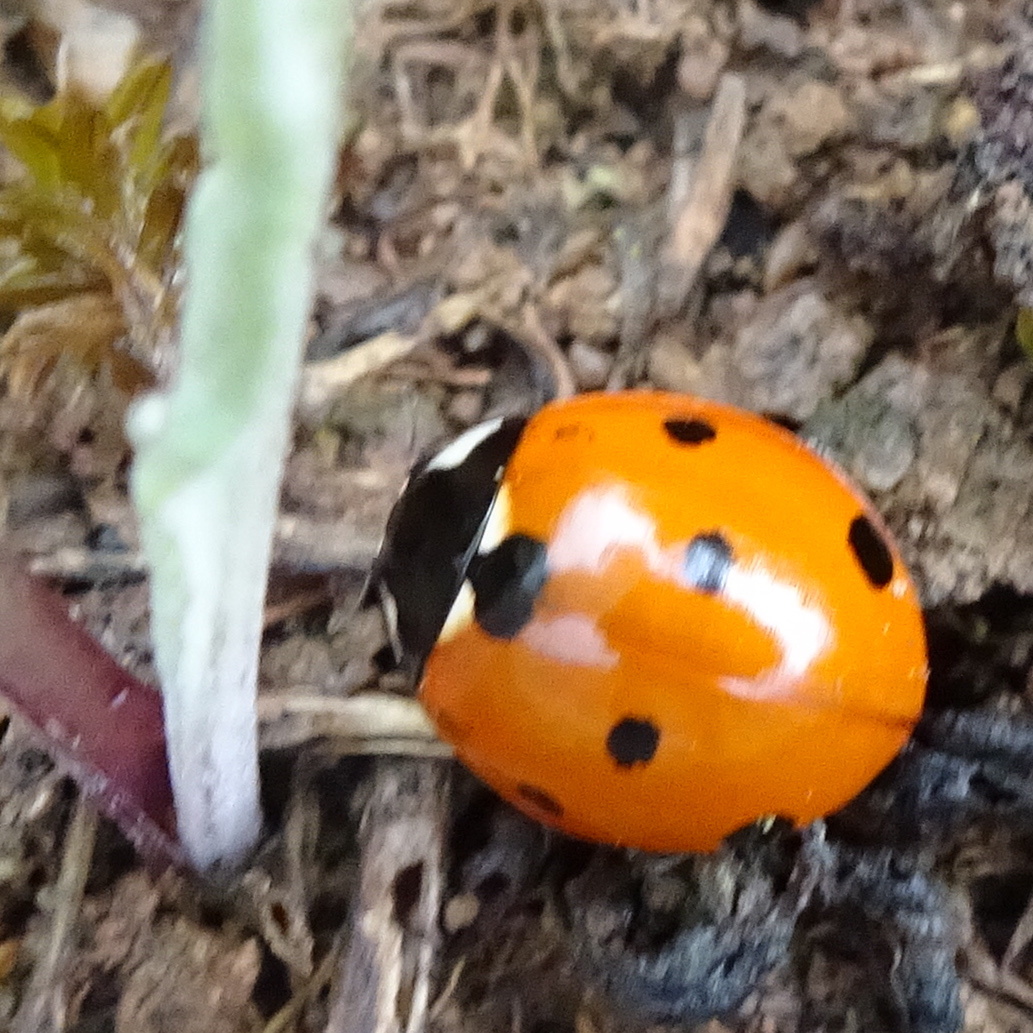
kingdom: Animalia
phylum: Arthropoda
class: Insecta
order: Coleoptera
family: Coccinellidae
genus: Coccinella
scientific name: Coccinella septempunctata
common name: Sevenspotted lady beetle
